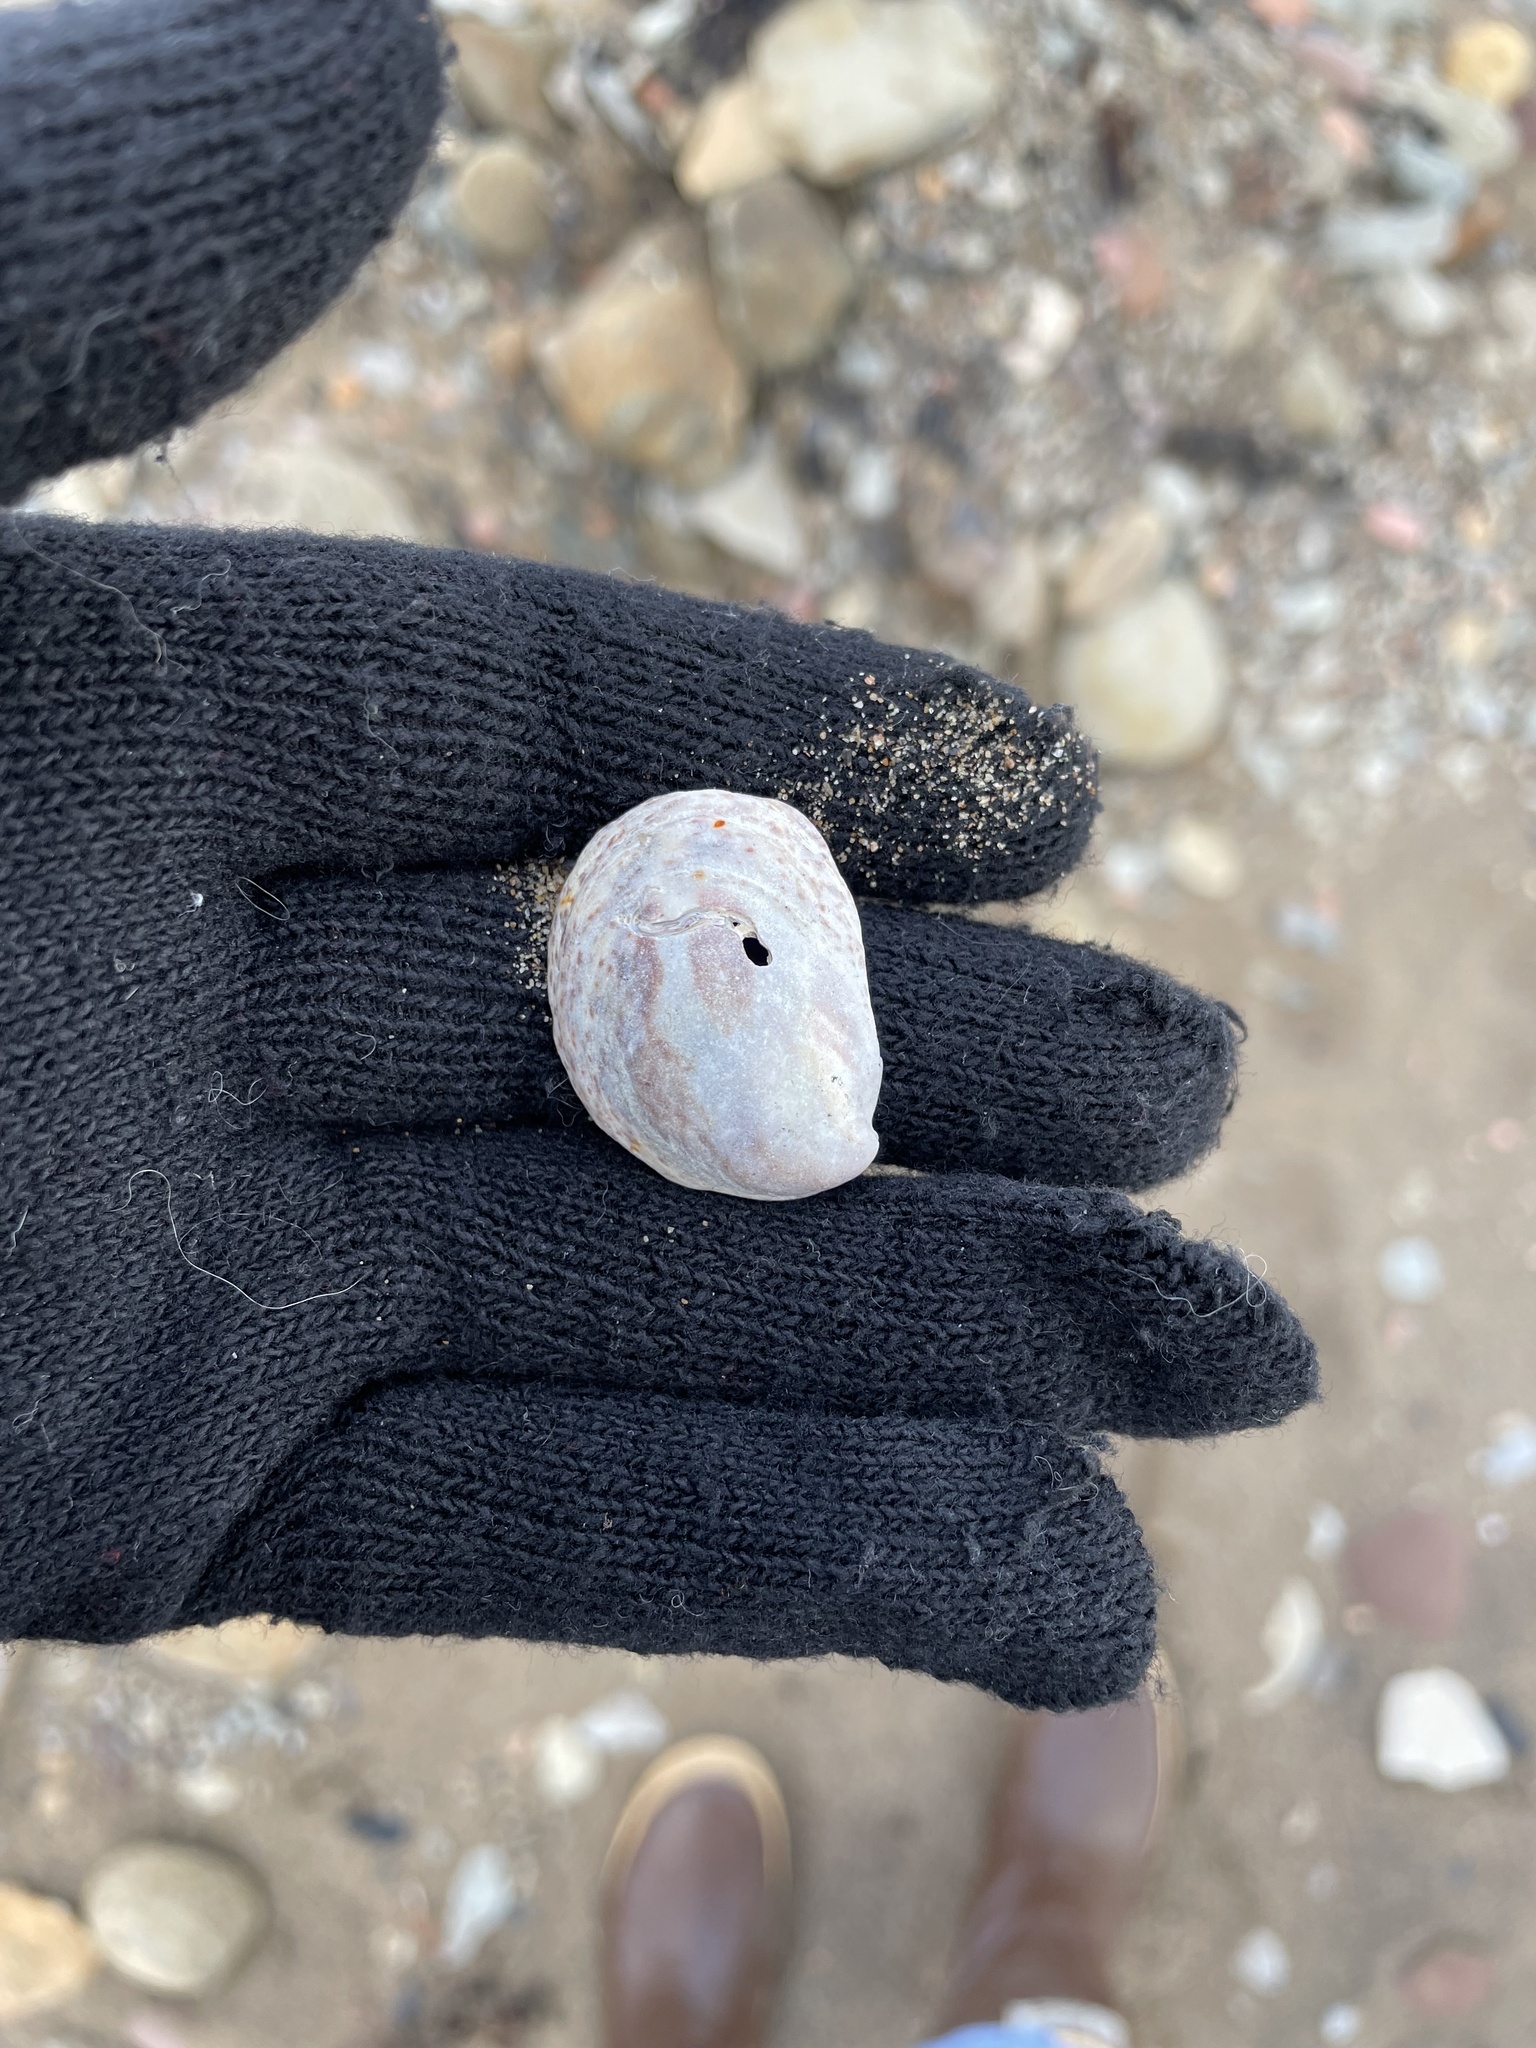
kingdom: Animalia
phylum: Mollusca
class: Gastropoda
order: Littorinimorpha
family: Calyptraeidae
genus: Crepidula
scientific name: Crepidula fornicata
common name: Slipper limpet
